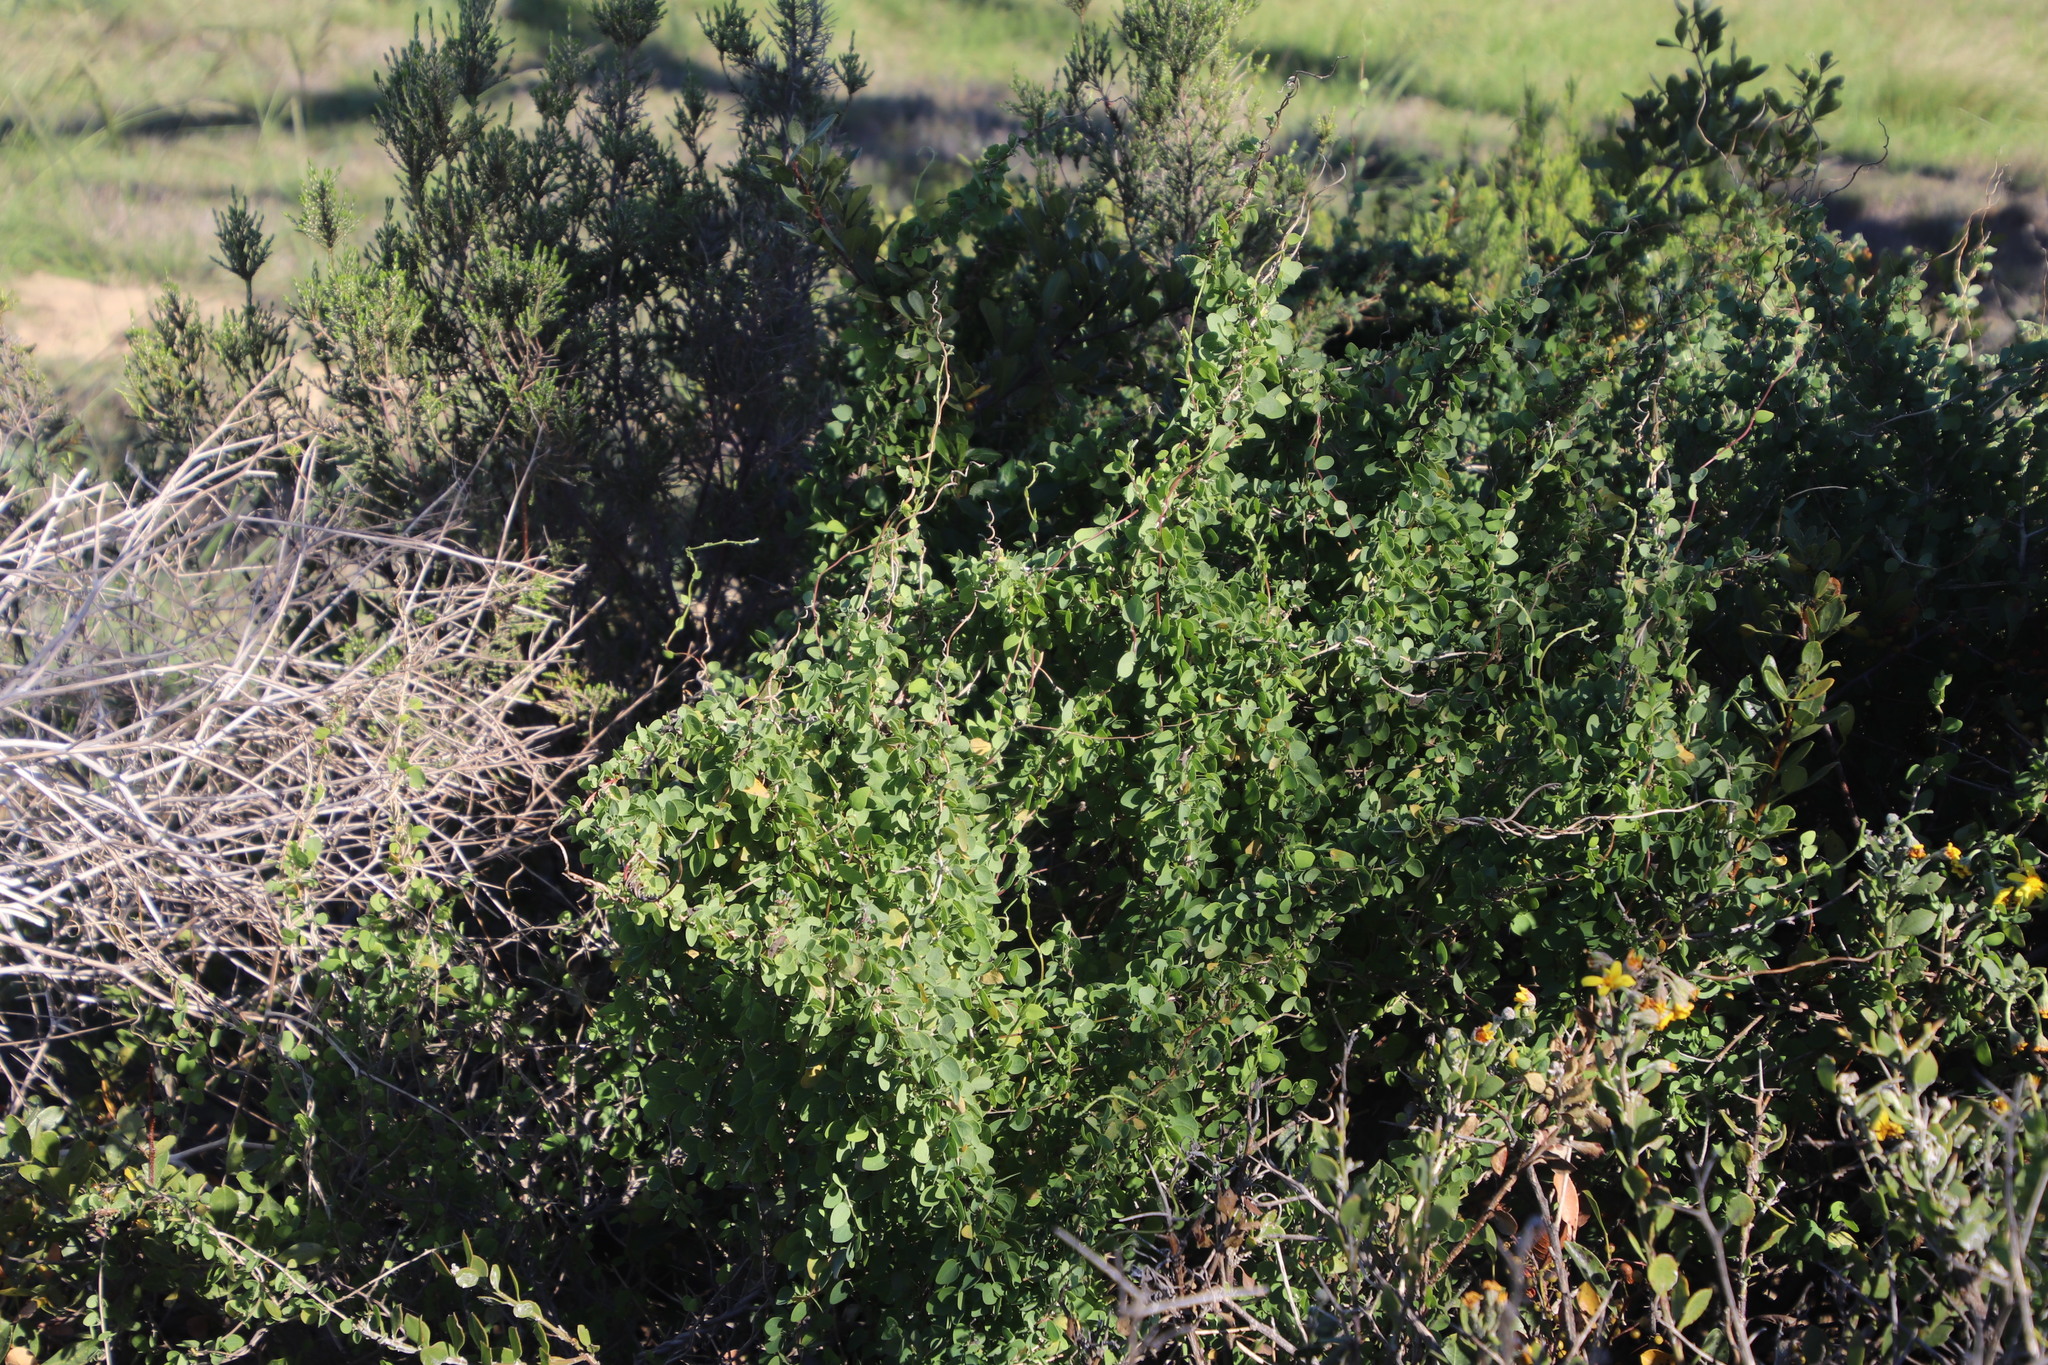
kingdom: Plantae
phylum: Tracheophyta
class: Magnoliopsida
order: Ranunculales
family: Menispermaceae
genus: Cissampelos
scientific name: Cissampelos capensis
